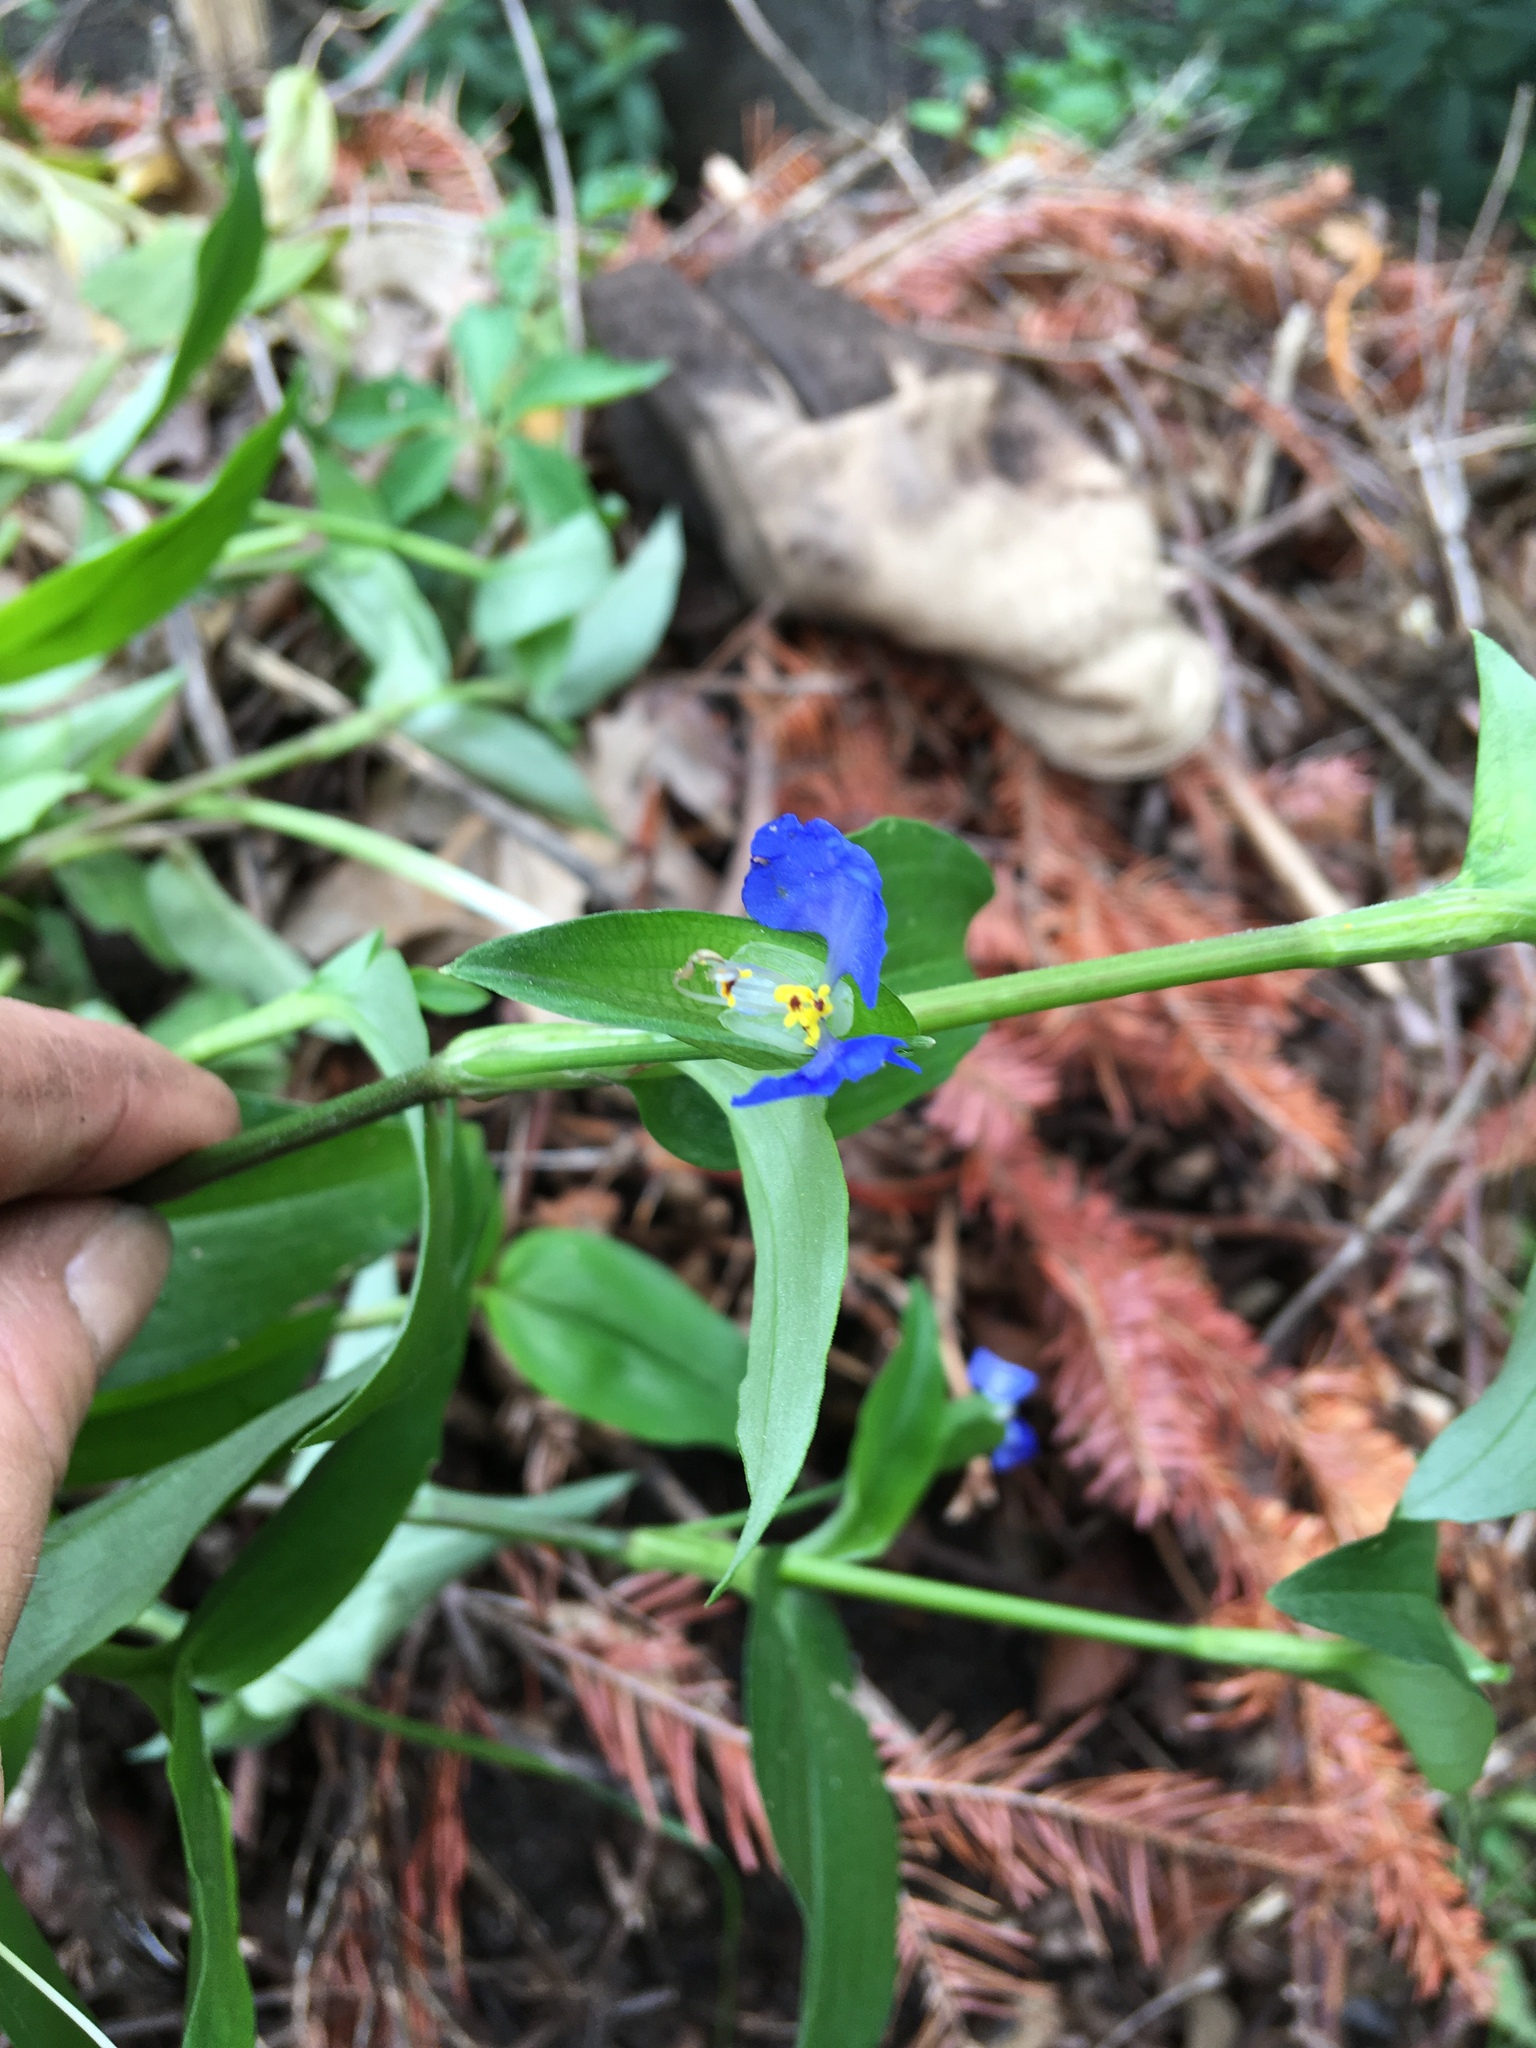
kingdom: Plantae
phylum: Tracheophyta
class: Liliopsida
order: Commelinales
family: Commelinaceae
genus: Commelina
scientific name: Commelina communis
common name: Asiatic dayflower
